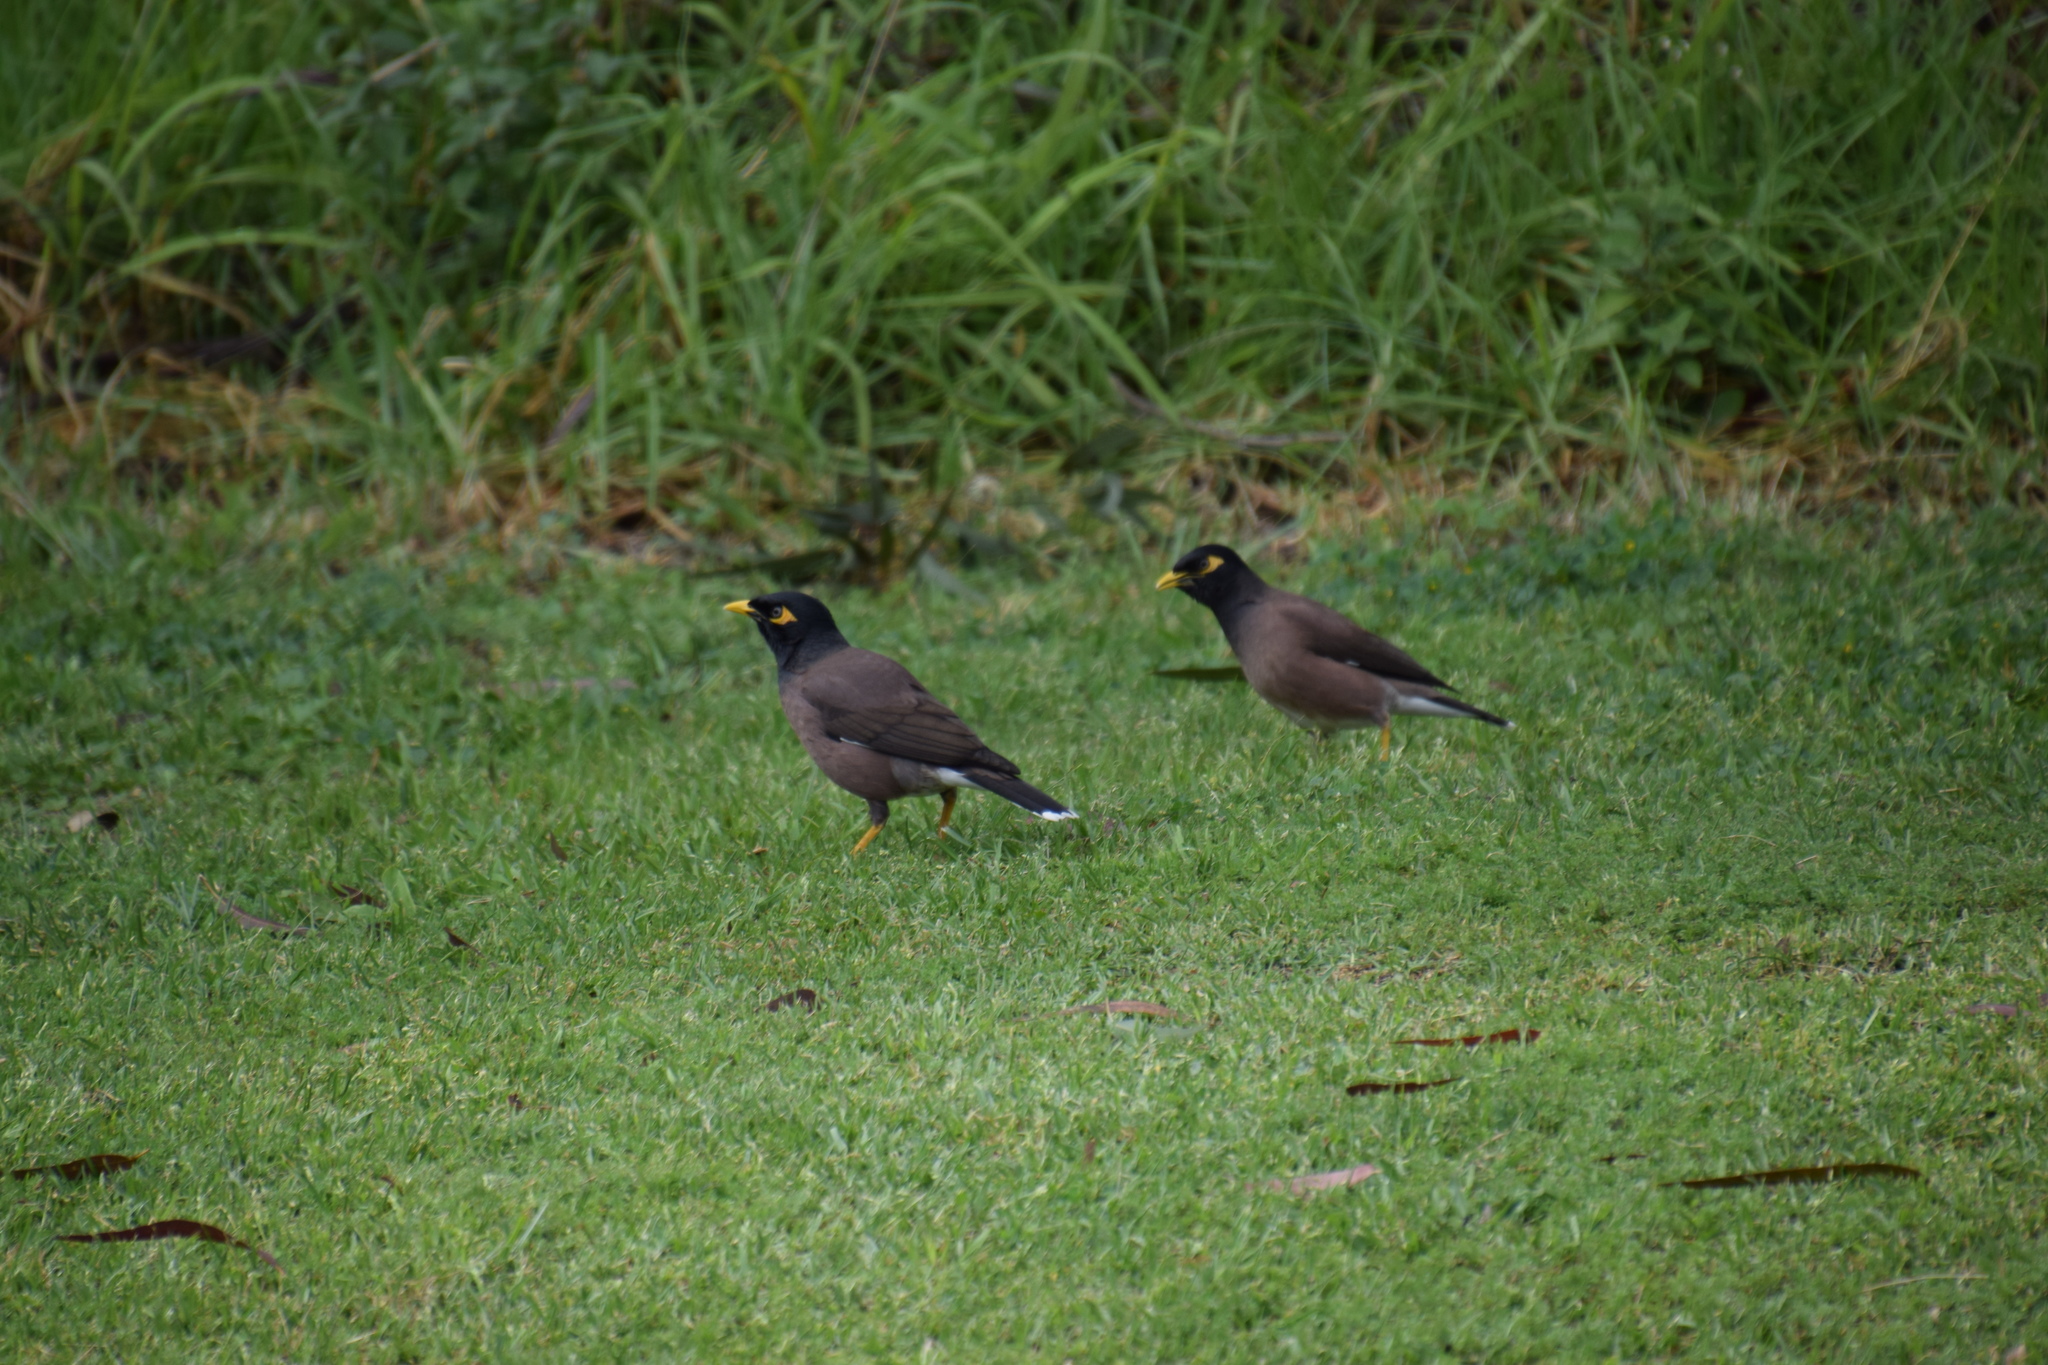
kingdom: Animalia
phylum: Chordata
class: Aves
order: Passeriformes
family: Sturnidae
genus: Acridotheres
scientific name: Acridotheres tristis
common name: Common myna
